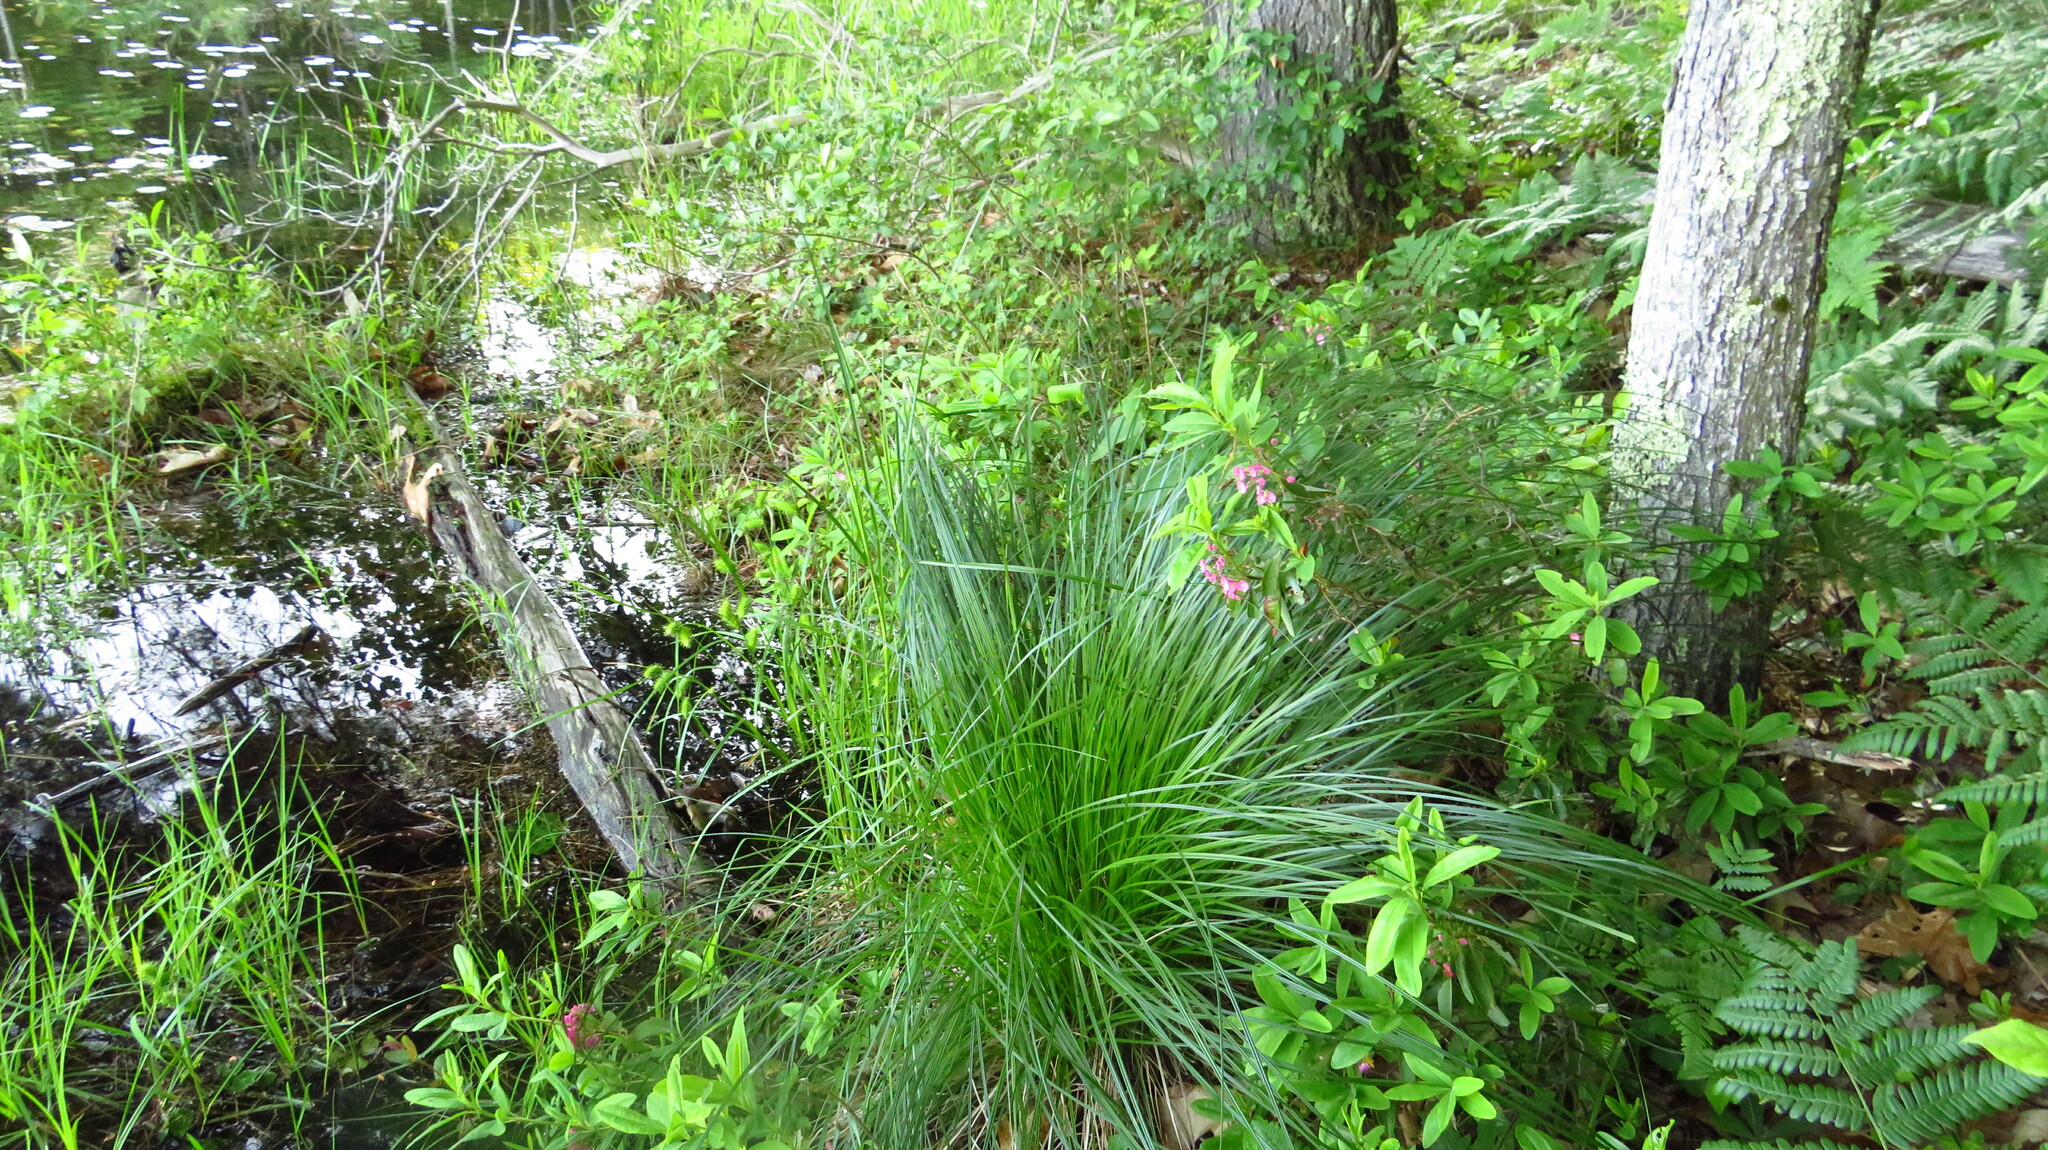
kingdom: Plantae
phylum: Tracheophyta
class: Liliopsida
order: Poales
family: Cyperaceae
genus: Carex
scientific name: Carex stricta
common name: Hummock sedge
